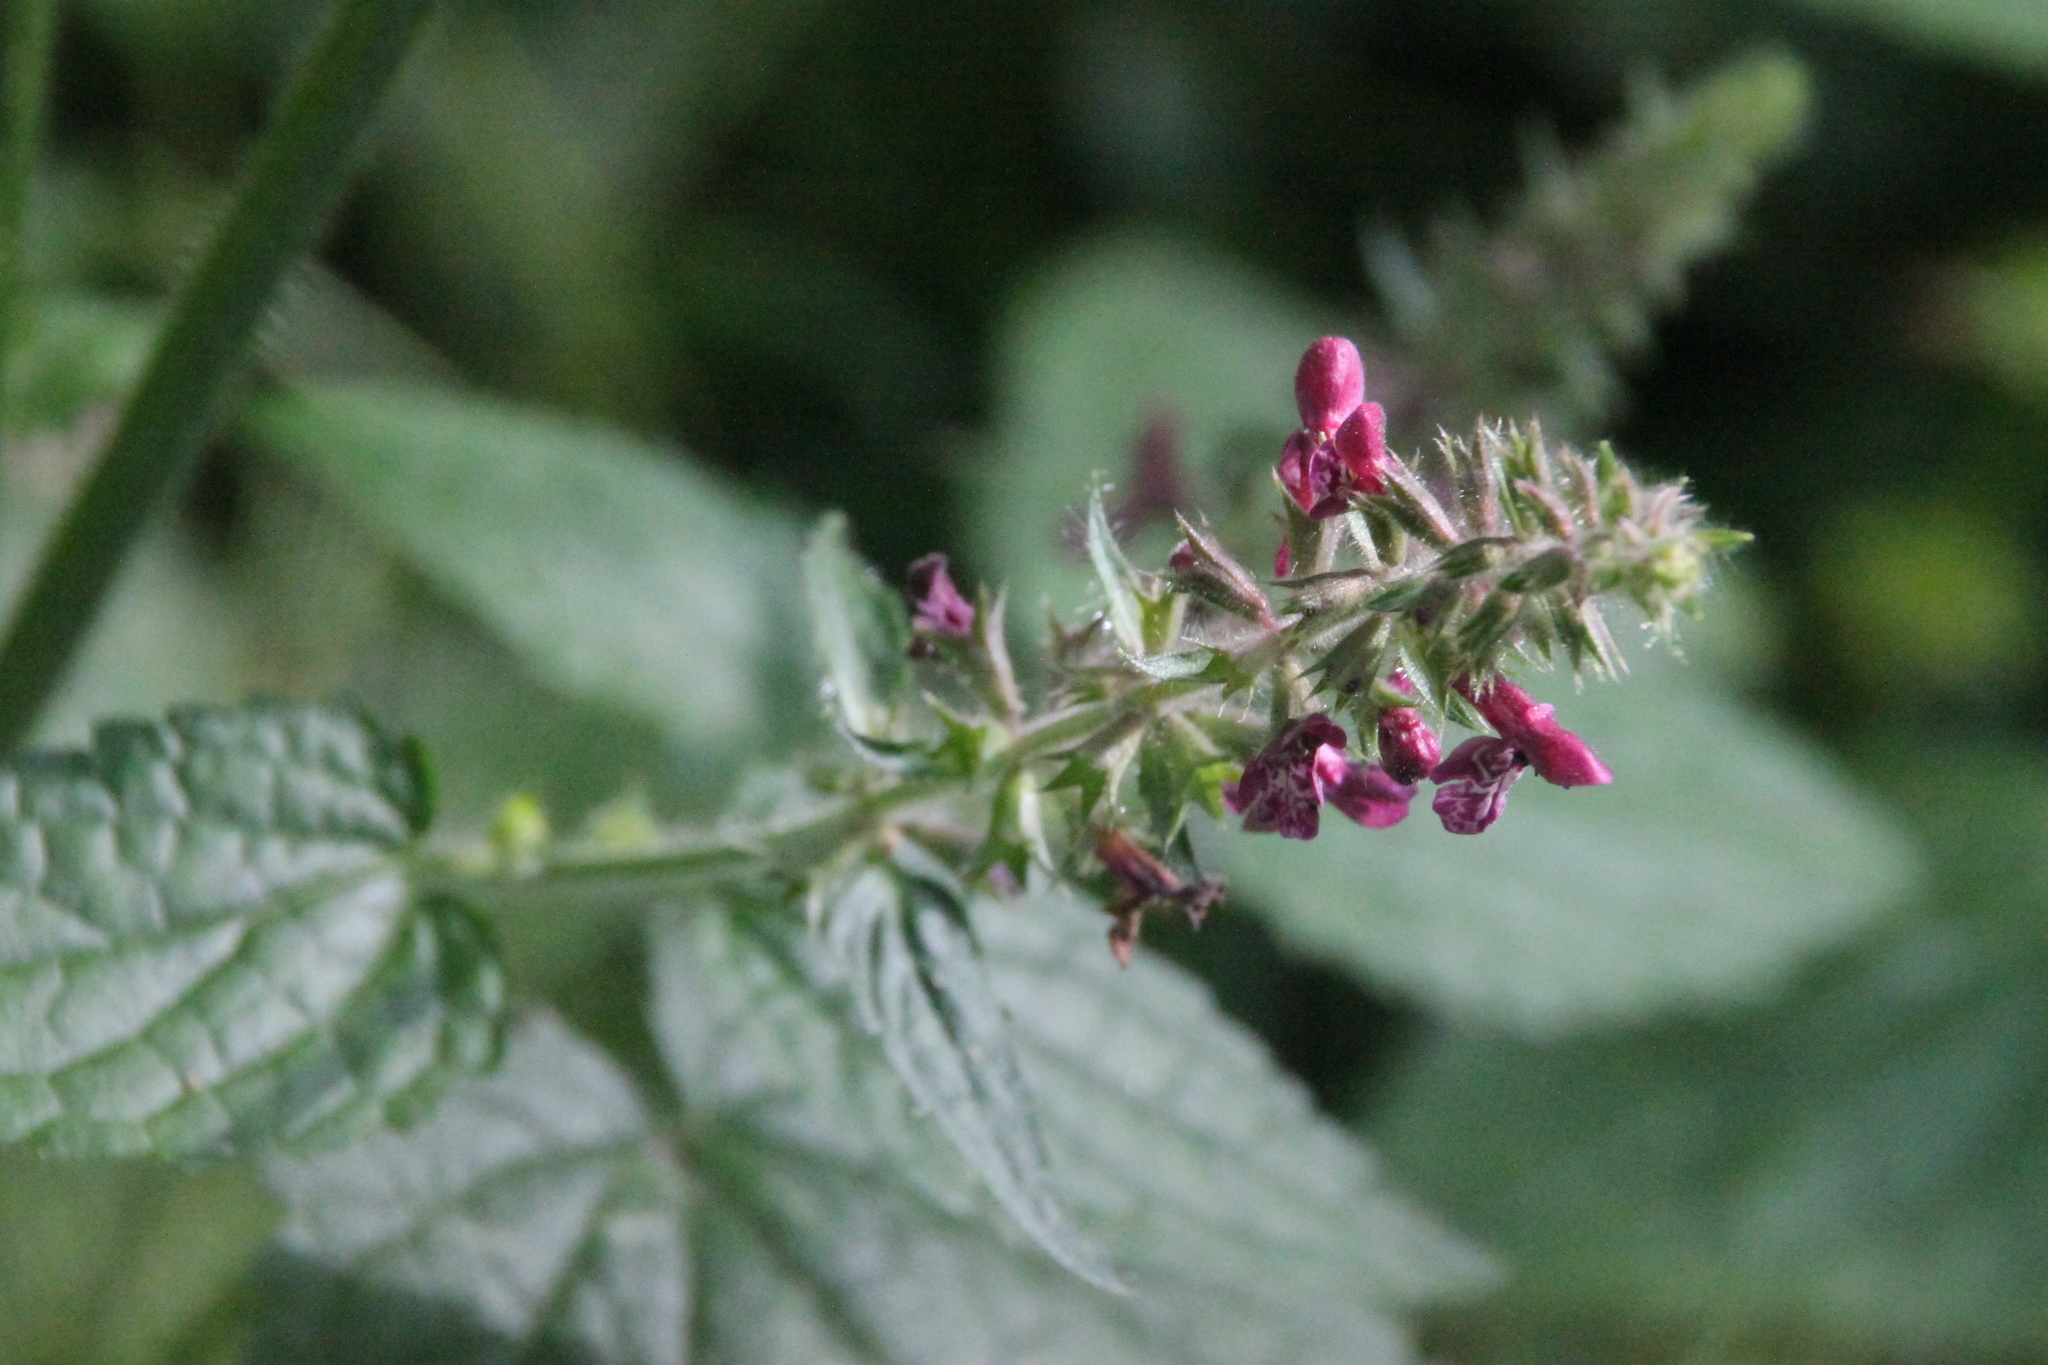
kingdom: Plantae
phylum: Tracheophyta
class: Magnoliopsida
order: Lamiales
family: Lamiaceae
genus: Stachys
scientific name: Stachys sylvatica
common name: Hedge woundwort
